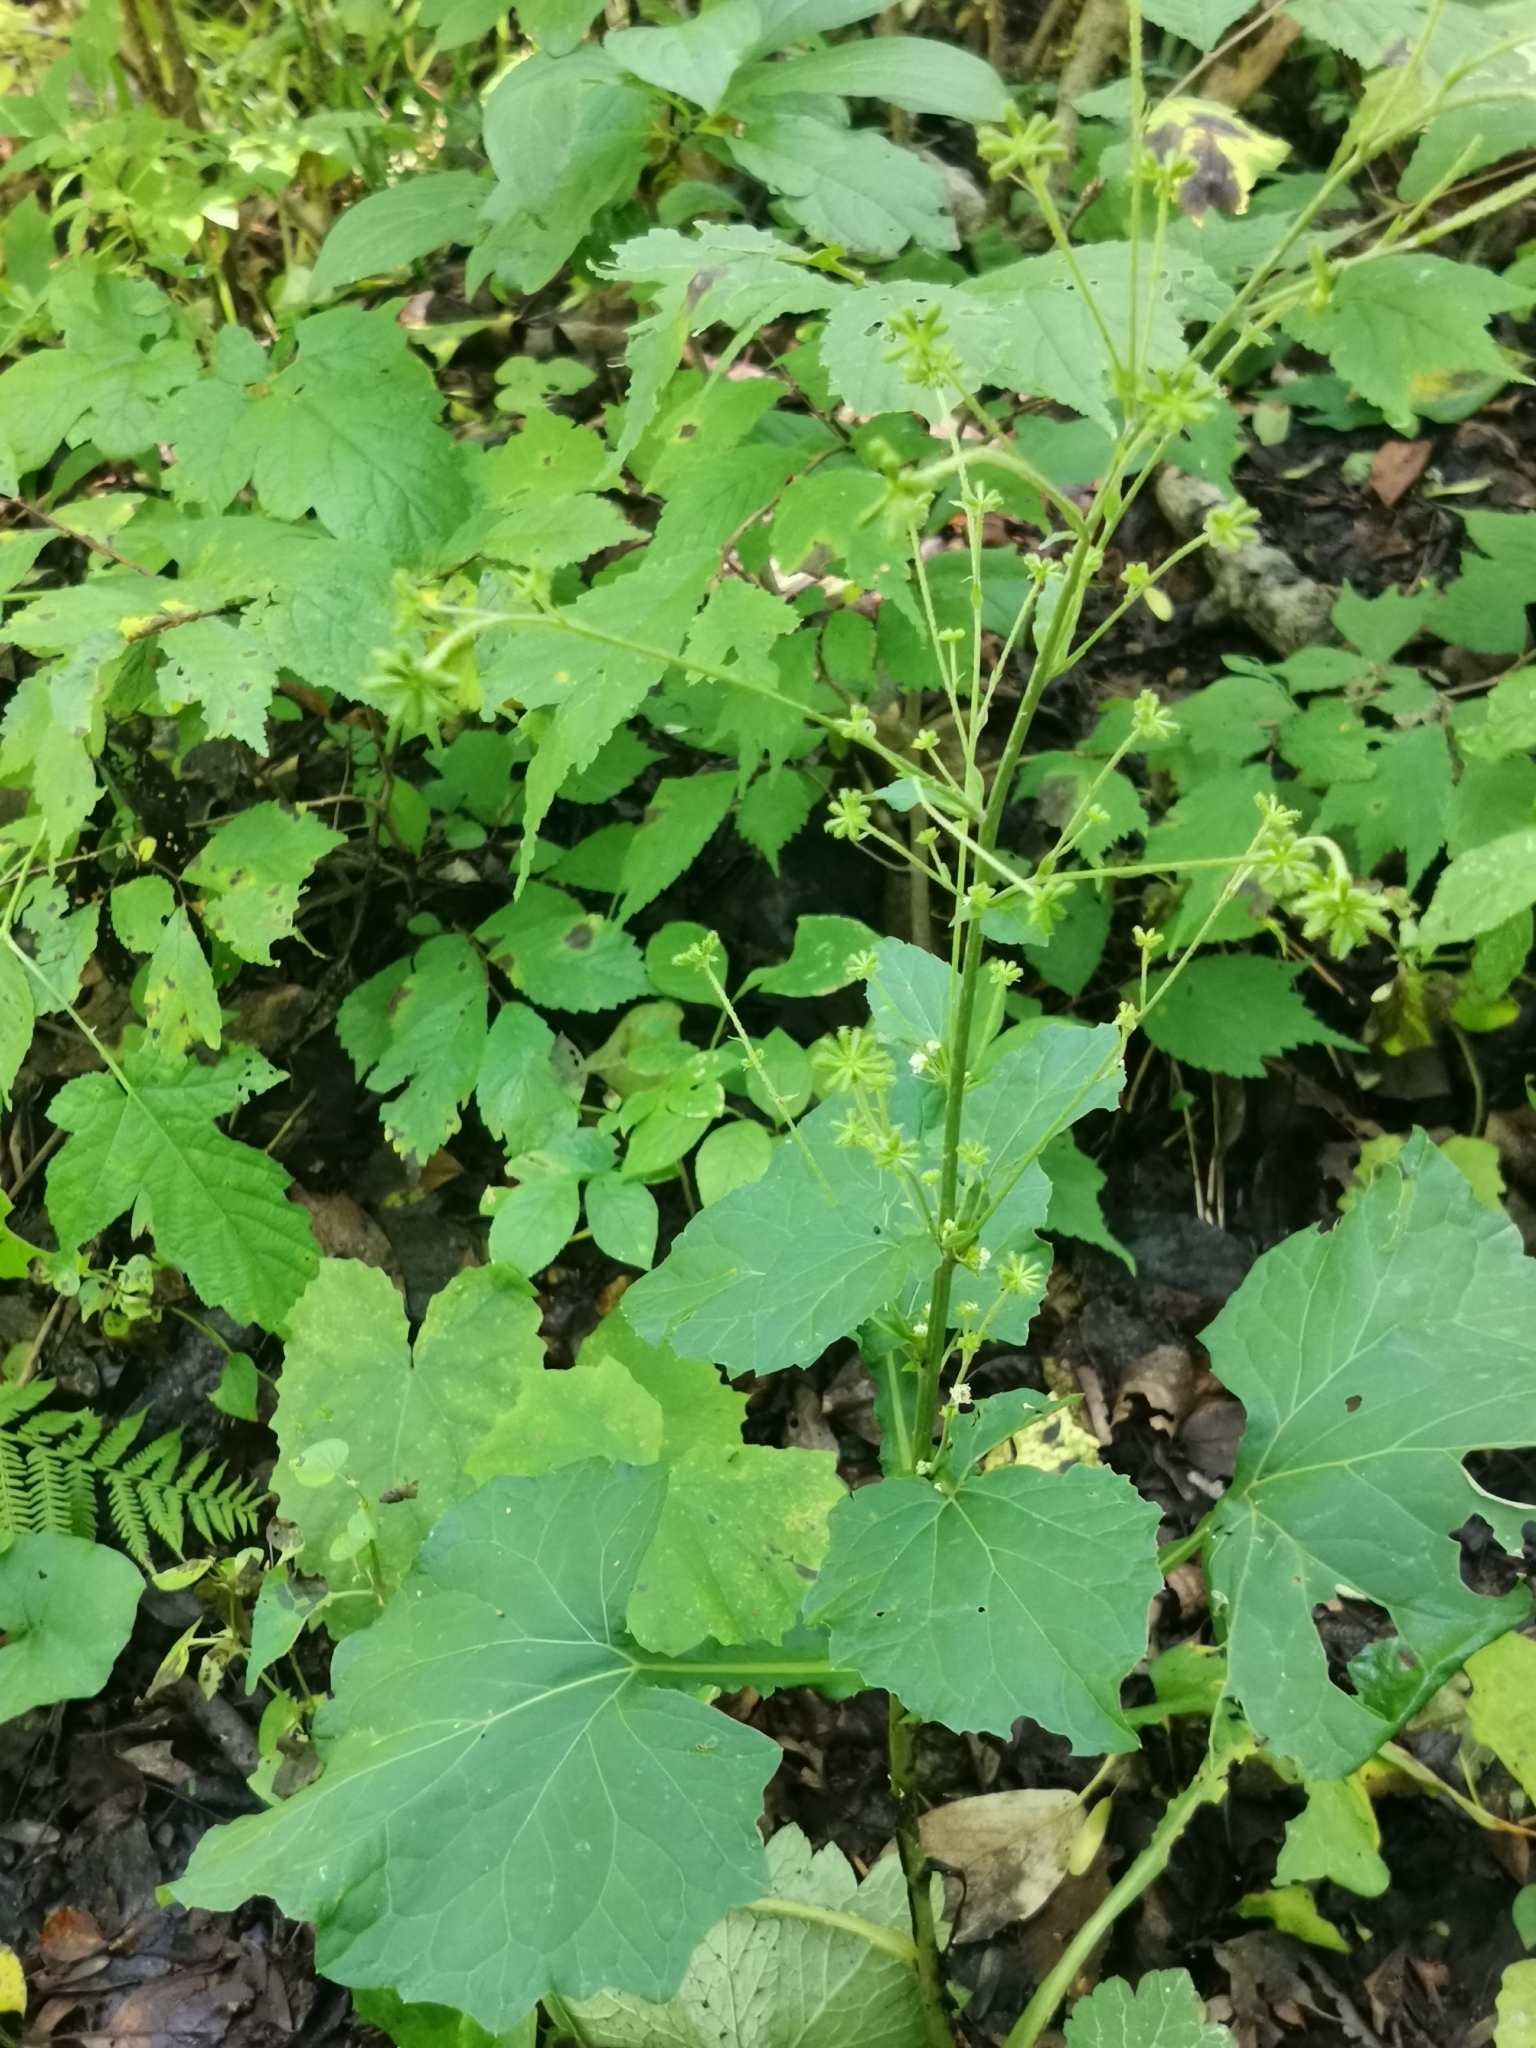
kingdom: Plantae
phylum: Tracheophyta
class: Magnoliopsida
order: Asterales
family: Asteraceae
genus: Adenocaulon
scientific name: Adenocaulon himalaicum
